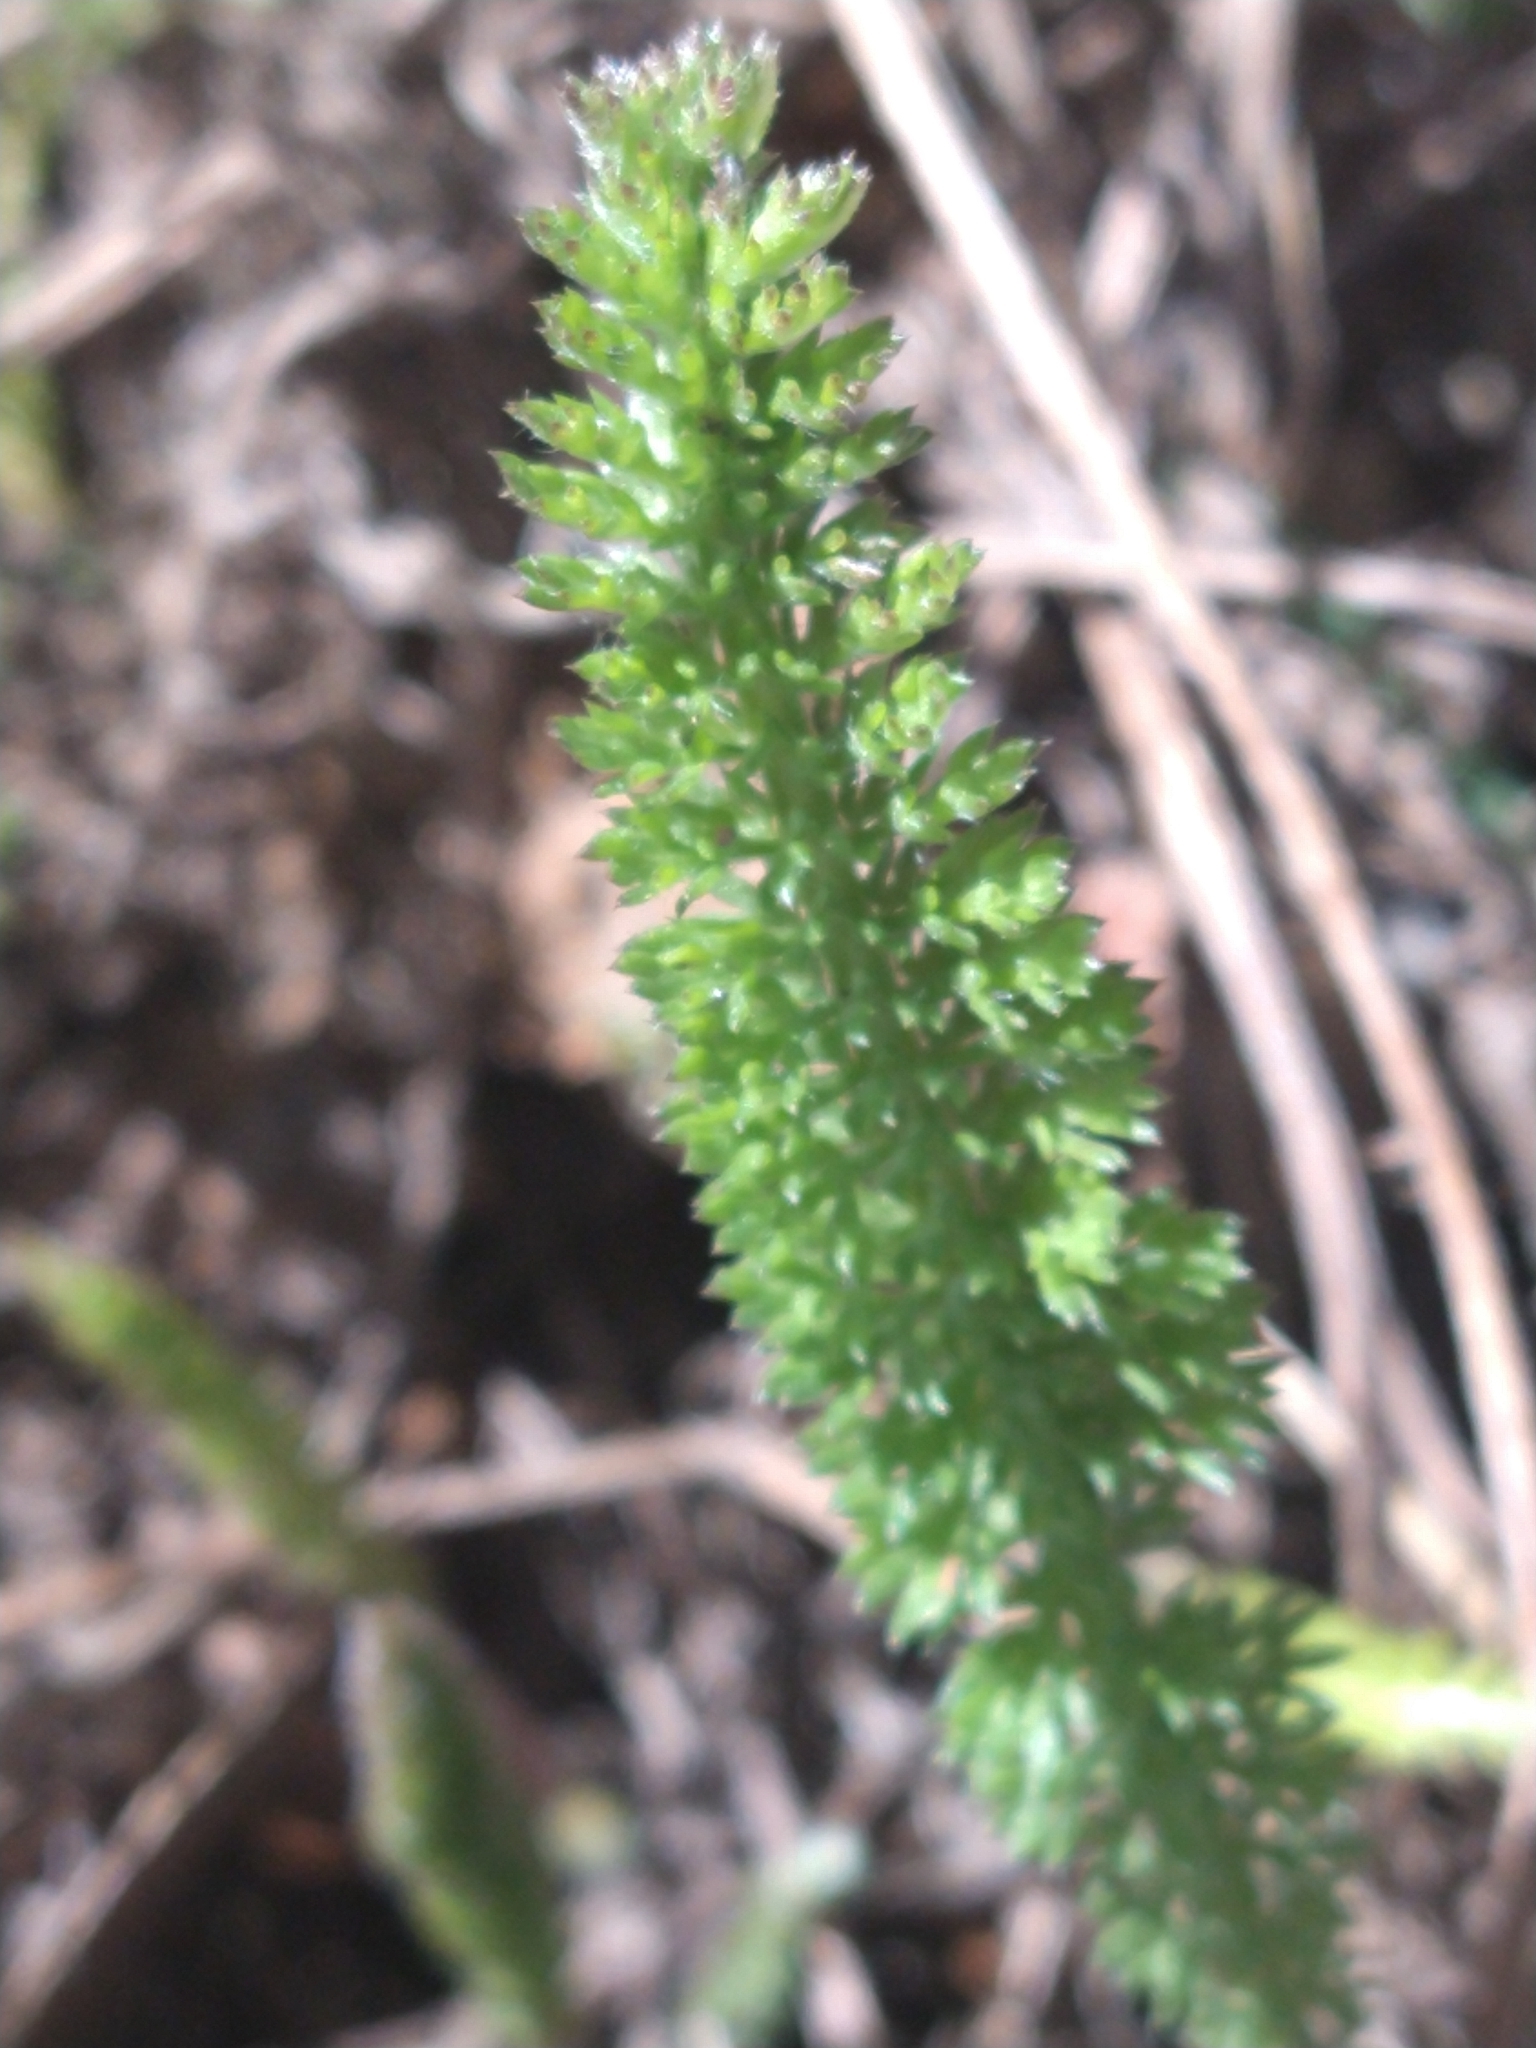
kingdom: Plantae
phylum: Tracheophyta
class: Magnoliopsida
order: Asterales
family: Asteraceae
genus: Achillea
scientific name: Achillea millefolium
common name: Yarrow
